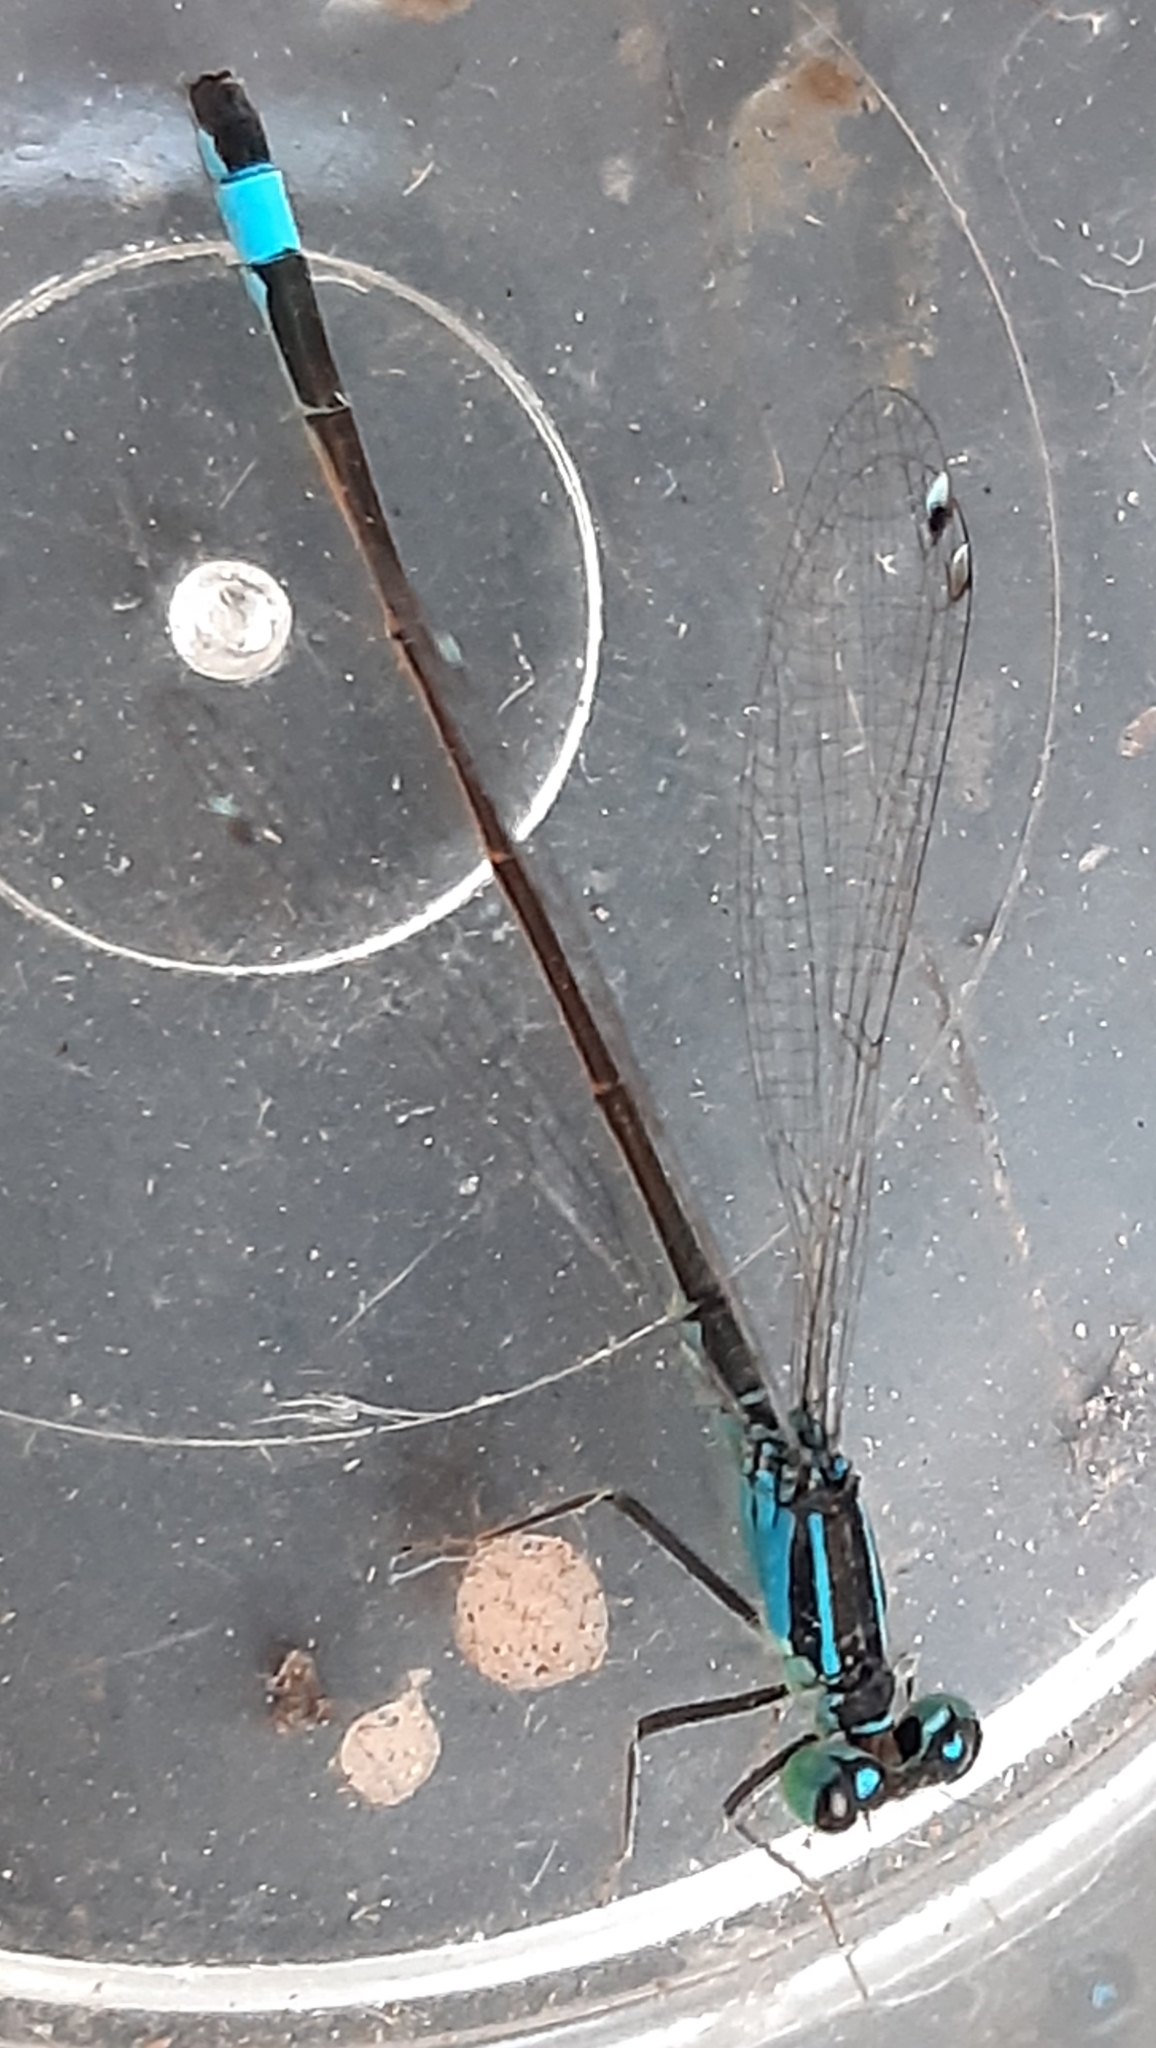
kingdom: Animalia
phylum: Arthropoda
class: Insecta
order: Odonata
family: Coenagrionidae
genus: Ischnura
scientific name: Ischnura elegans
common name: Blue-tailed damselfly
